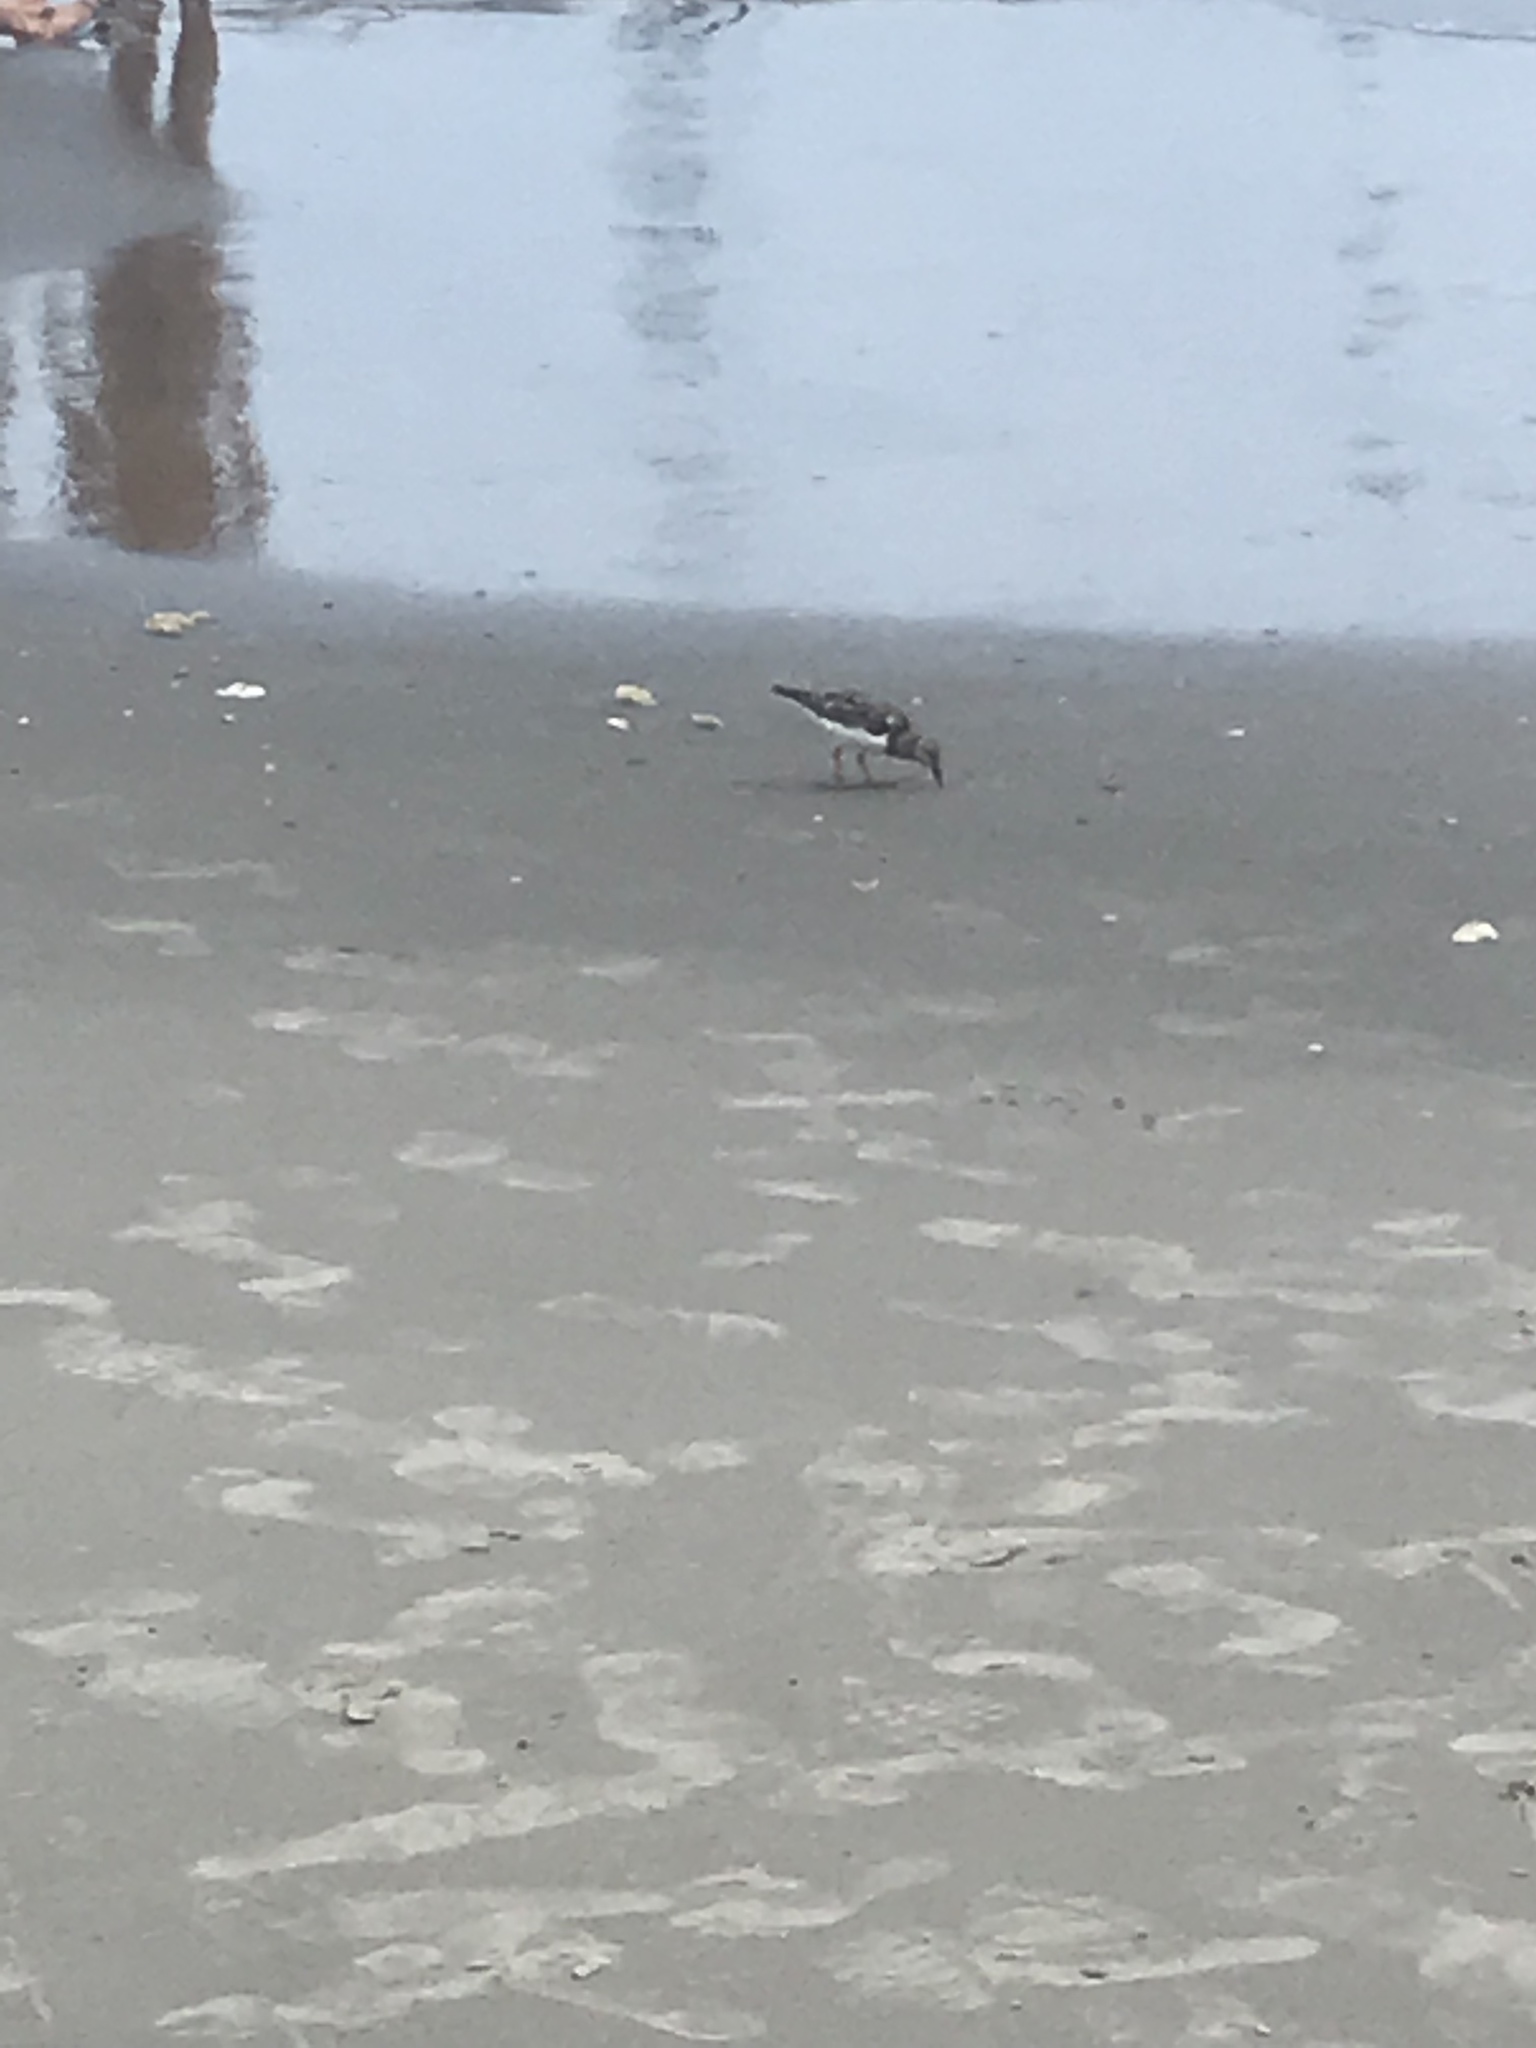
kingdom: Animalia
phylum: Chordata
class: Aves
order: Charadriiformes
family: Scolopacidae
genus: Arenaria
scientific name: Arenaria interpres
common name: Ruddy turnstone
